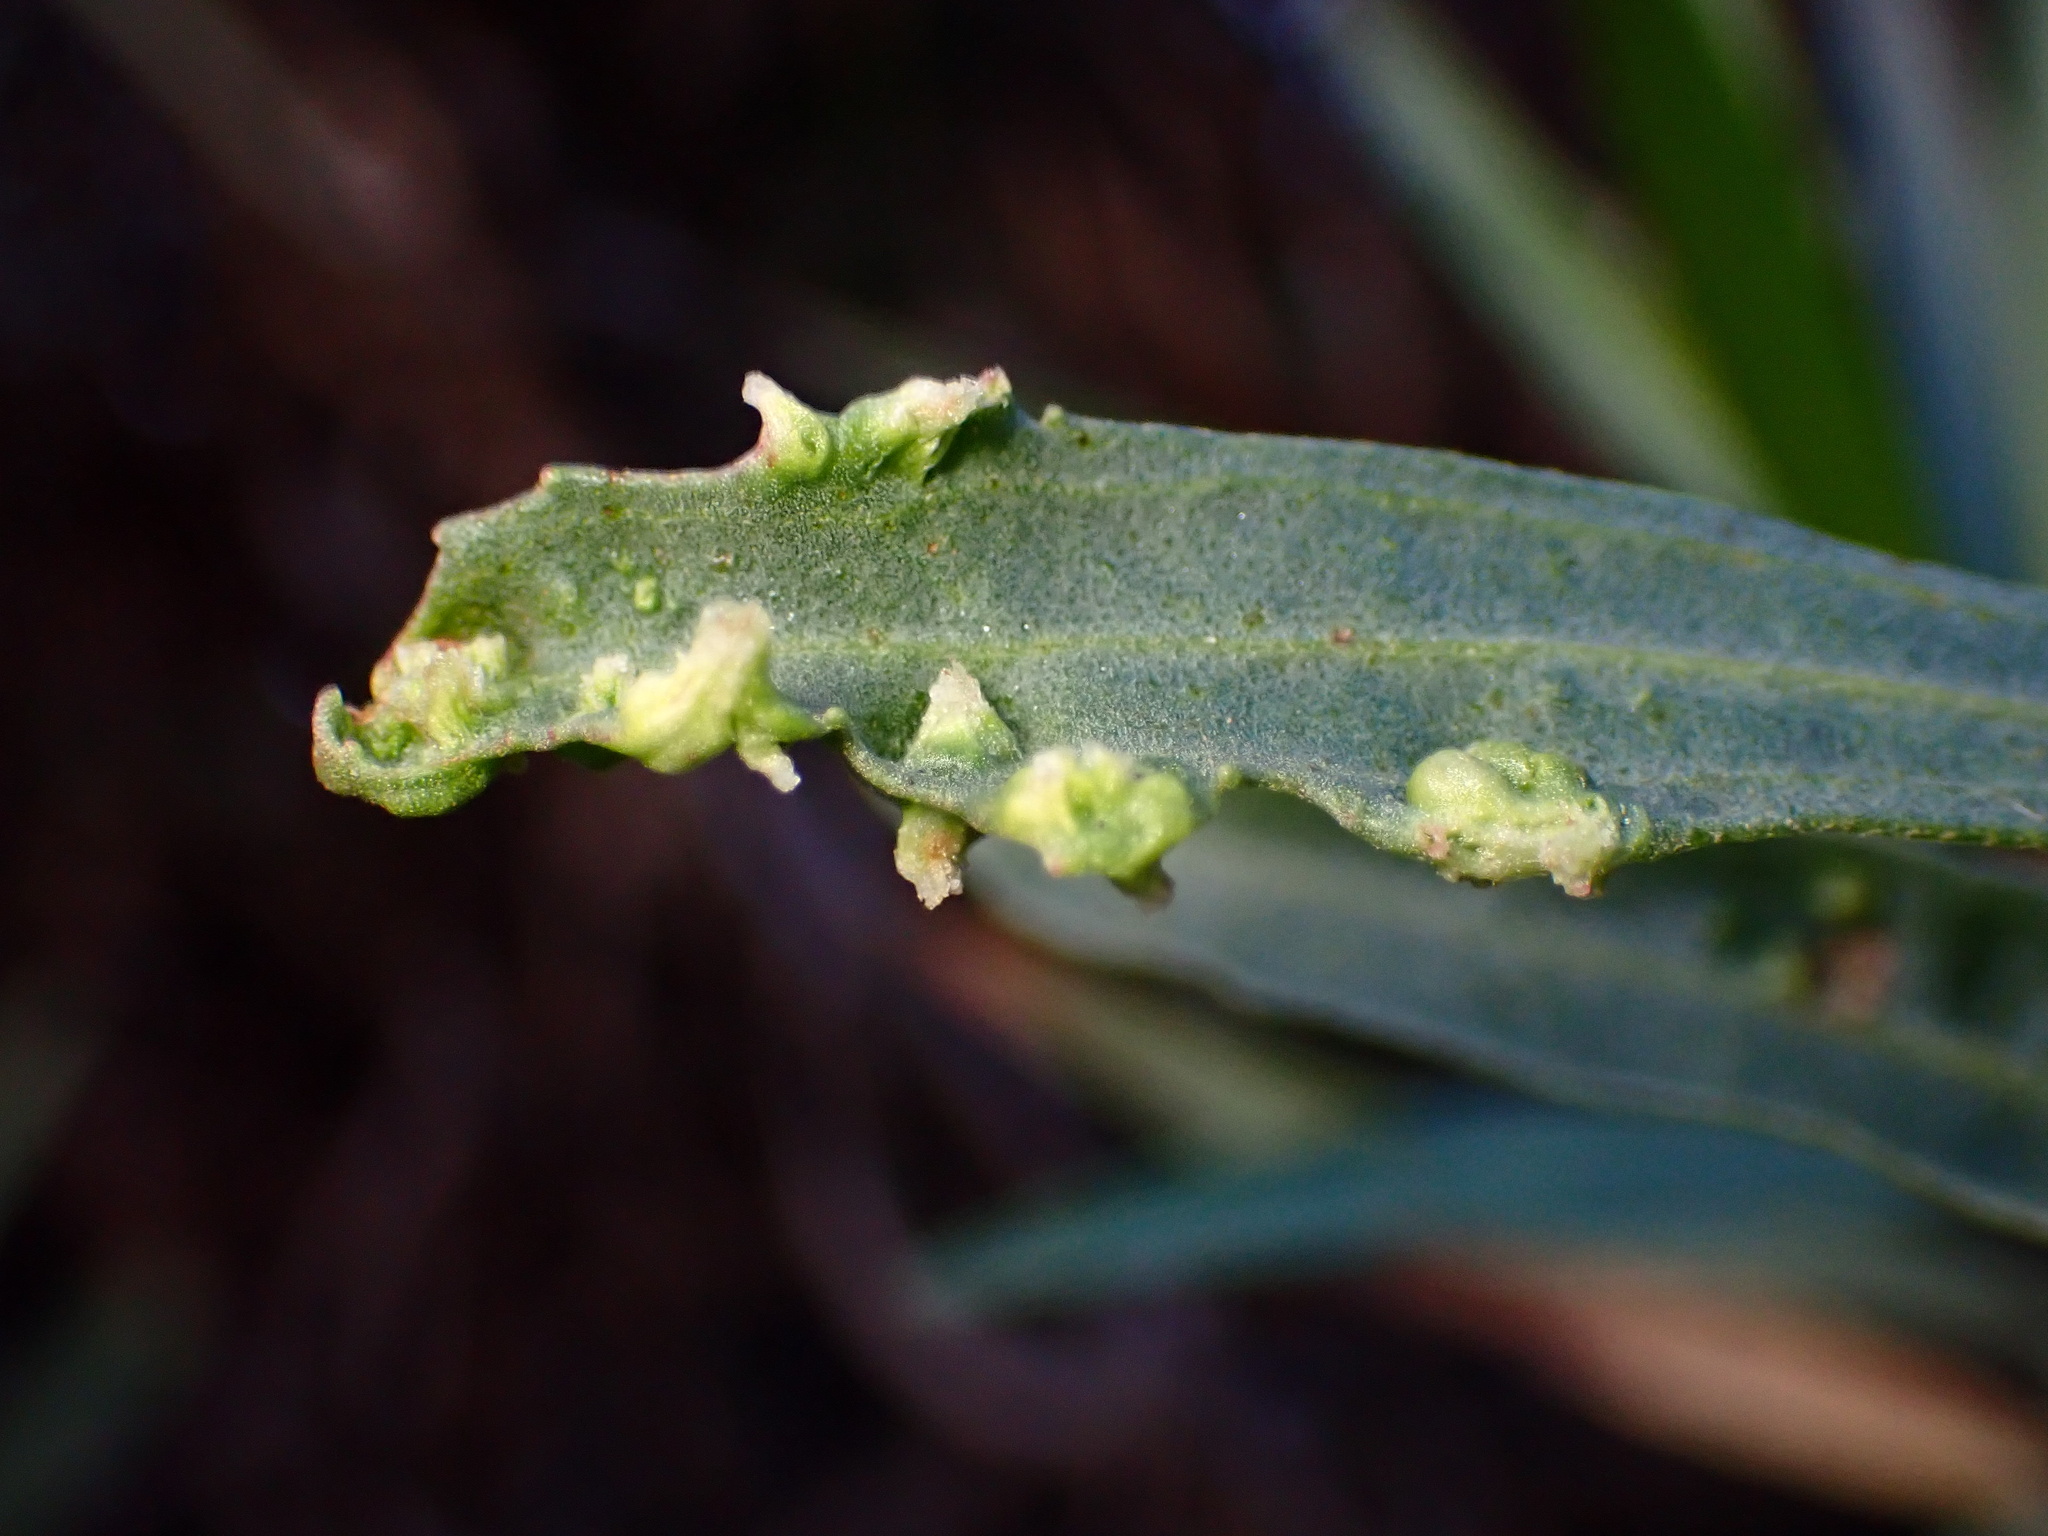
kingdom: Animalia
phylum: Arthropoda
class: Arachnida
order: Trombidiformes
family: Eriophyidae
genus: Aceria
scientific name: Aceria
